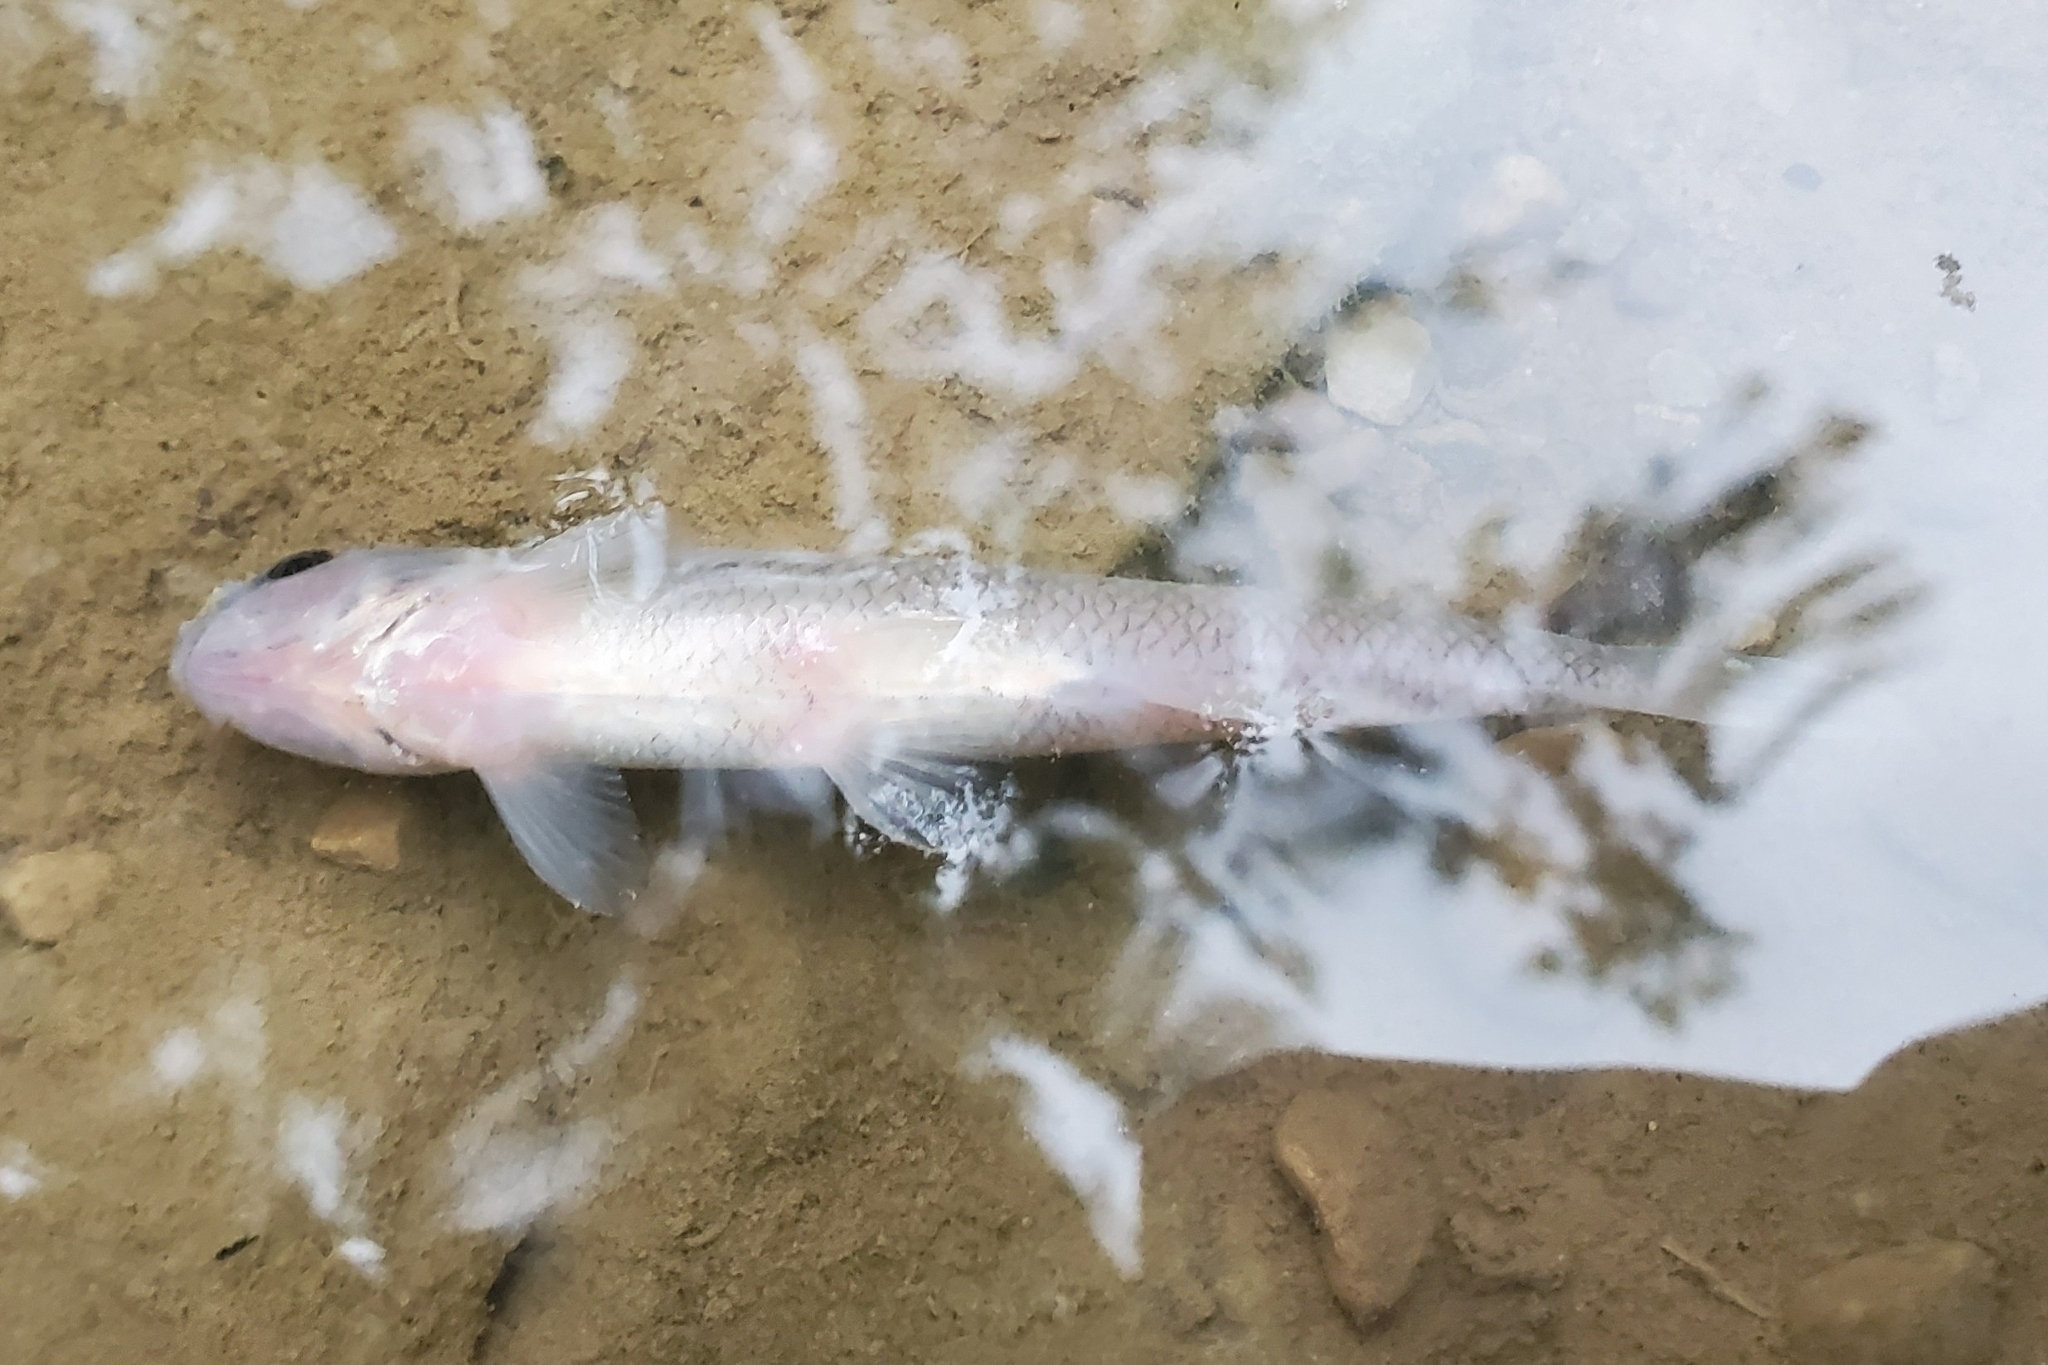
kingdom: Animalia
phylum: Chordata
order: Cypriniformes
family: Cyprinidae
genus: Pimephales
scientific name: Pimephales notatus
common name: Bluntnose minnow
